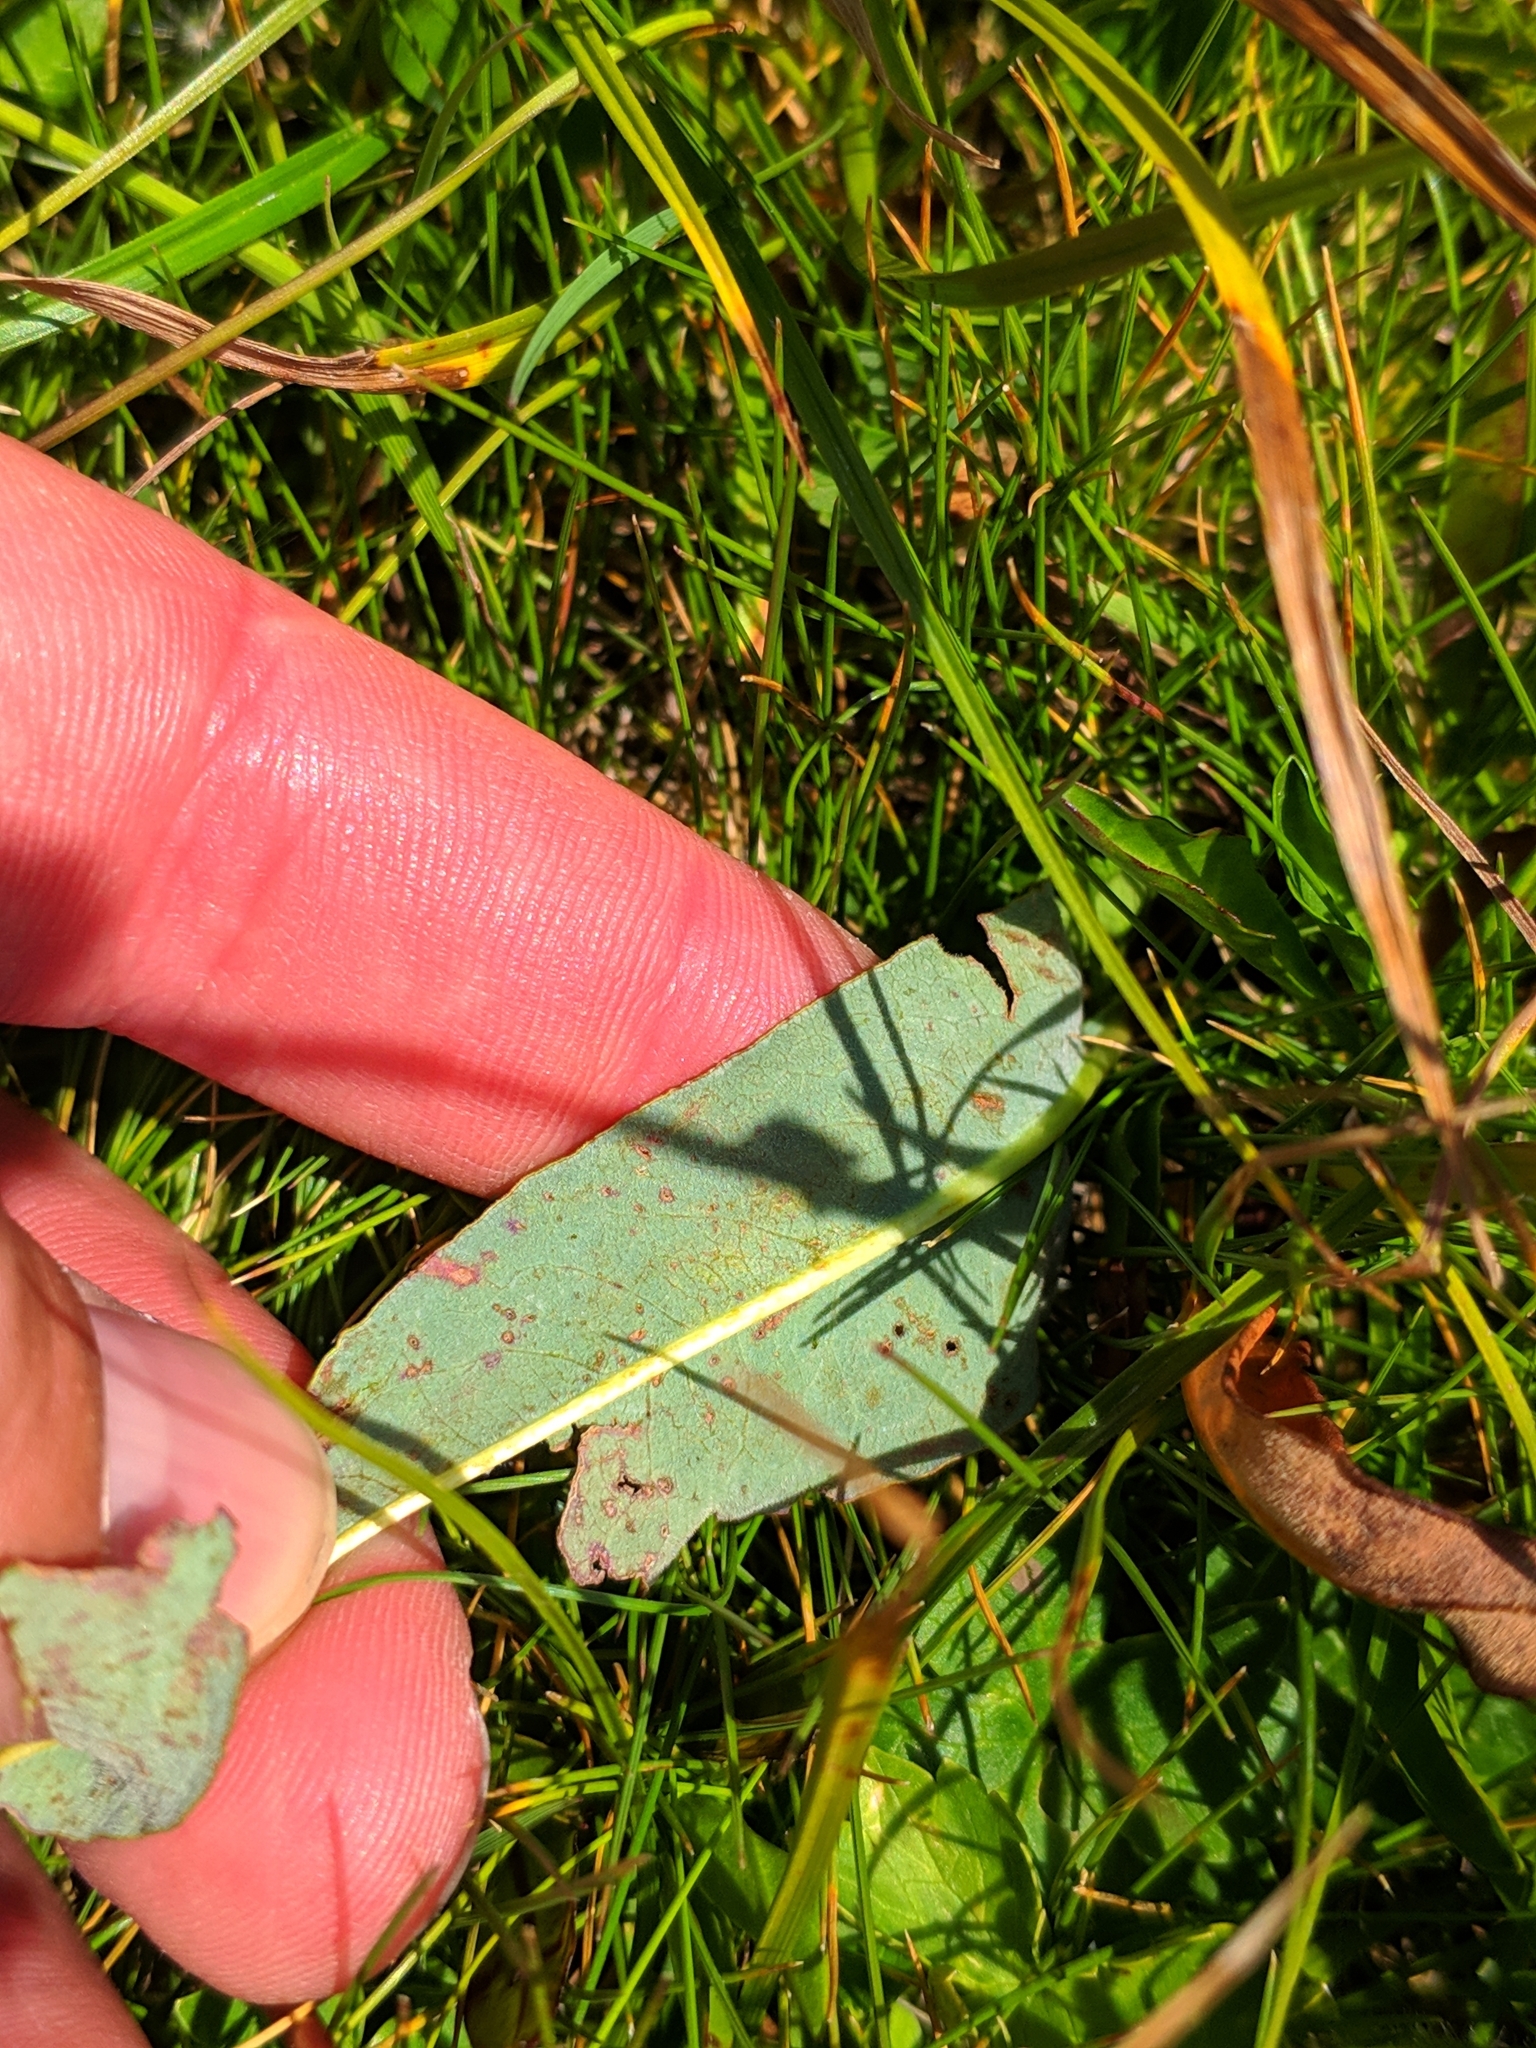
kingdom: Plantae
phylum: Tracheophyta
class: Magnoliopsida
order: Caryophyllales
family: Polygonaceae
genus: Bistorta
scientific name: Bistorta carnea
